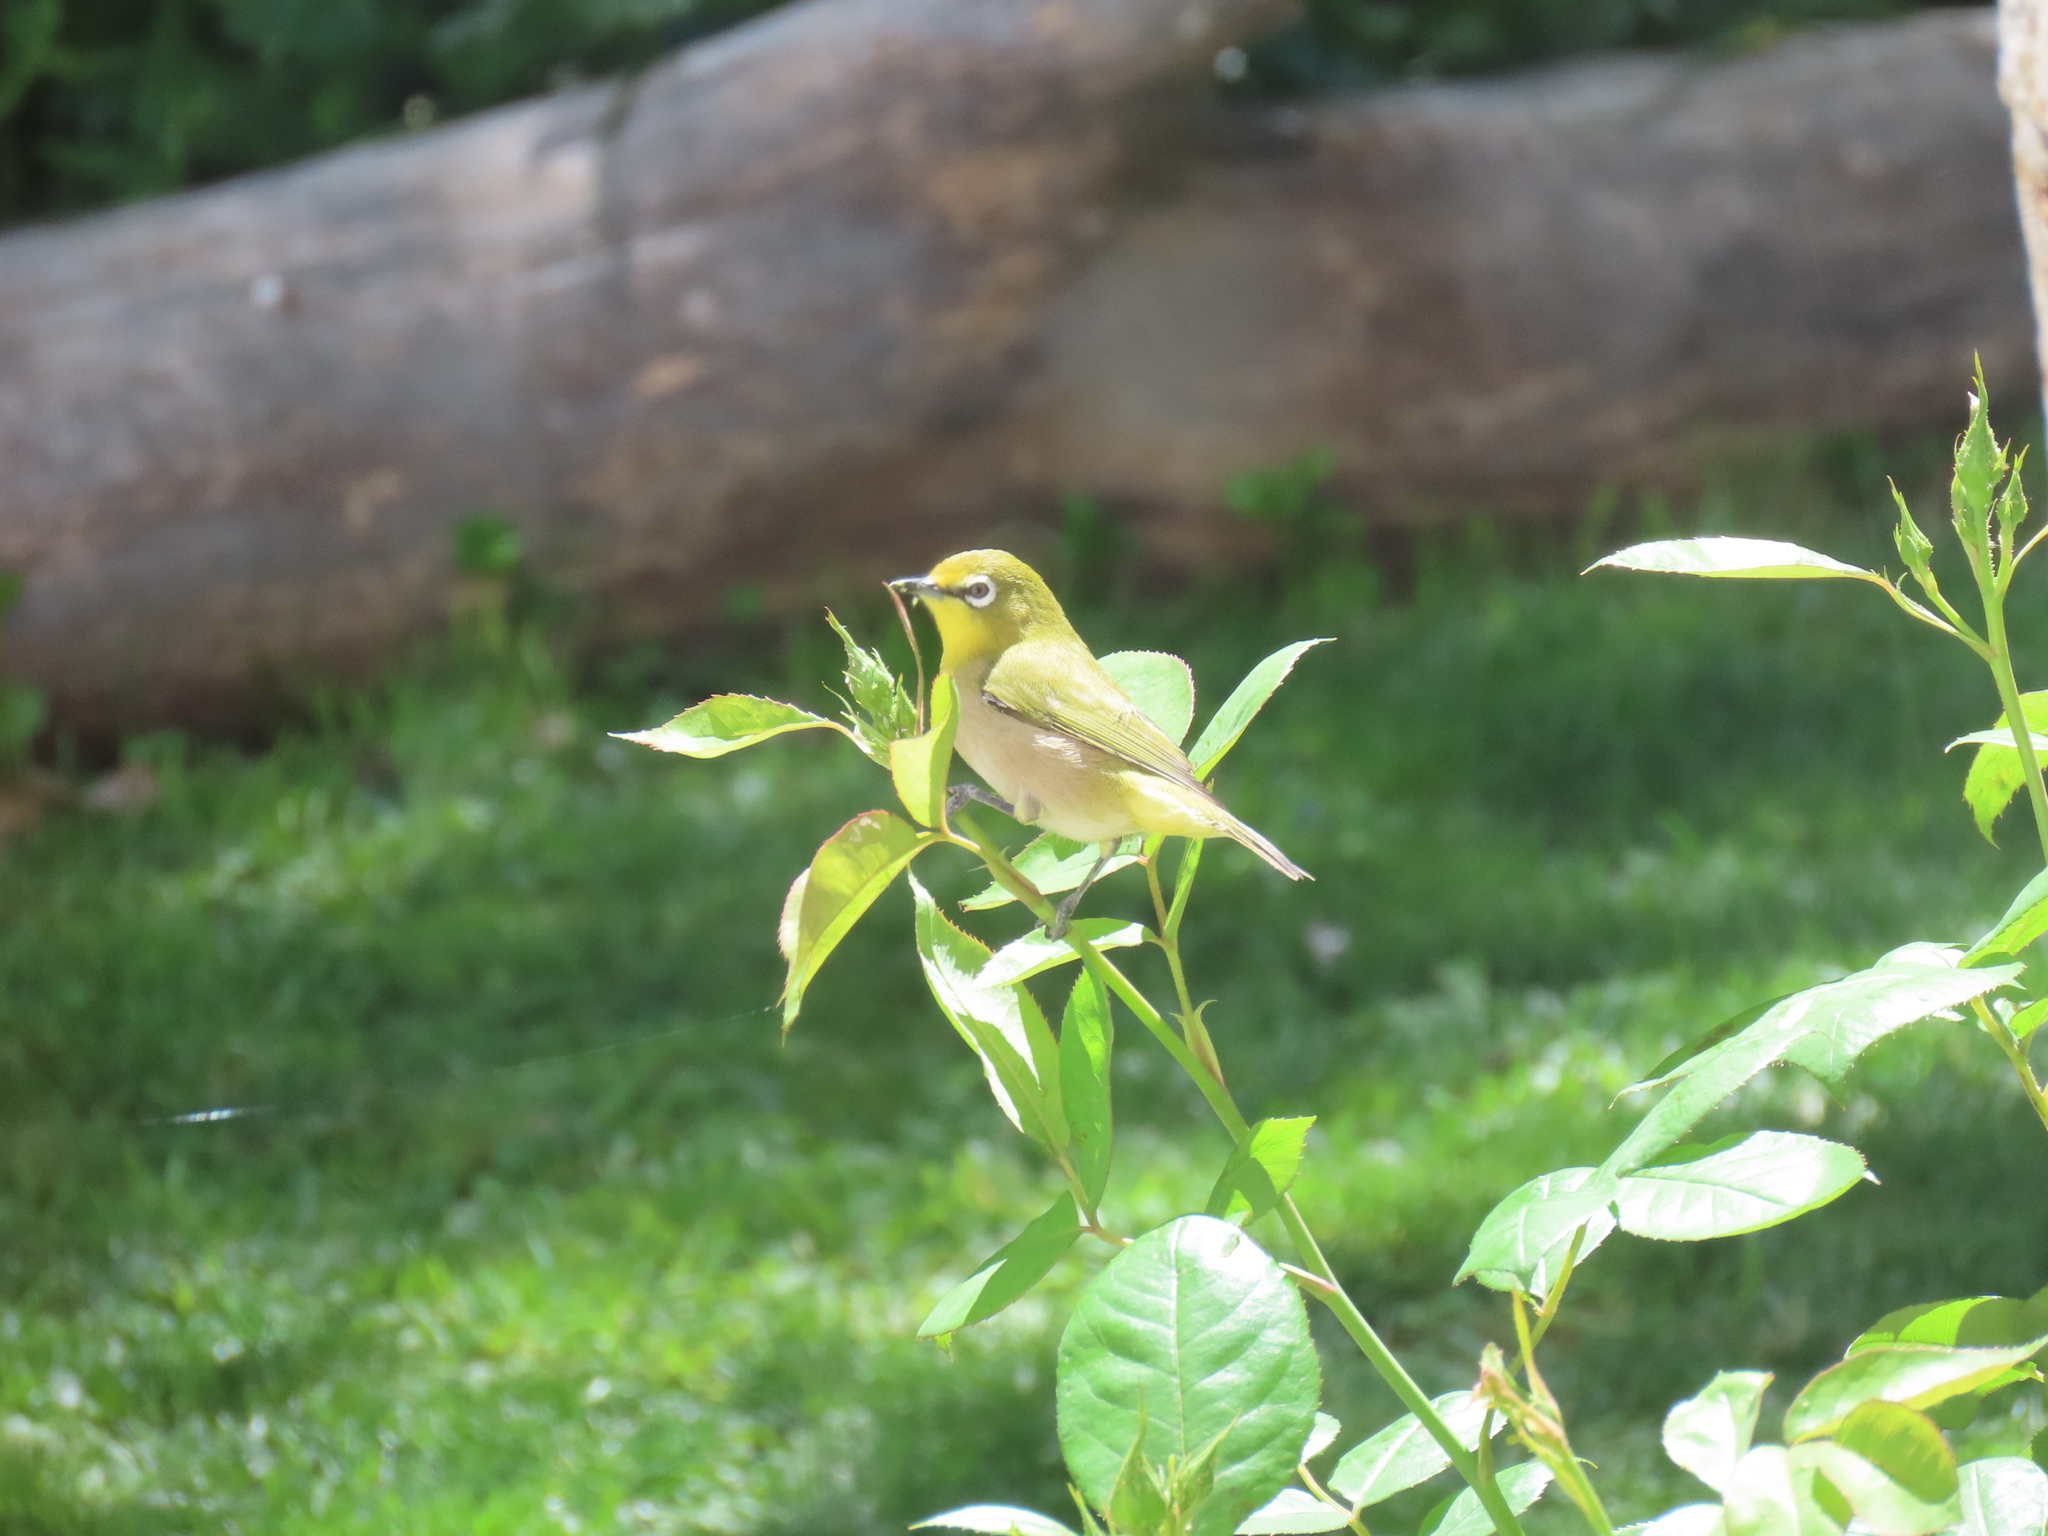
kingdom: Animalia
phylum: Chordata
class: Aves
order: Passeriformes
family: Zosteropidae
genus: Zosterops
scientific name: Zosterops pallidus
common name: Orange river white-eye
